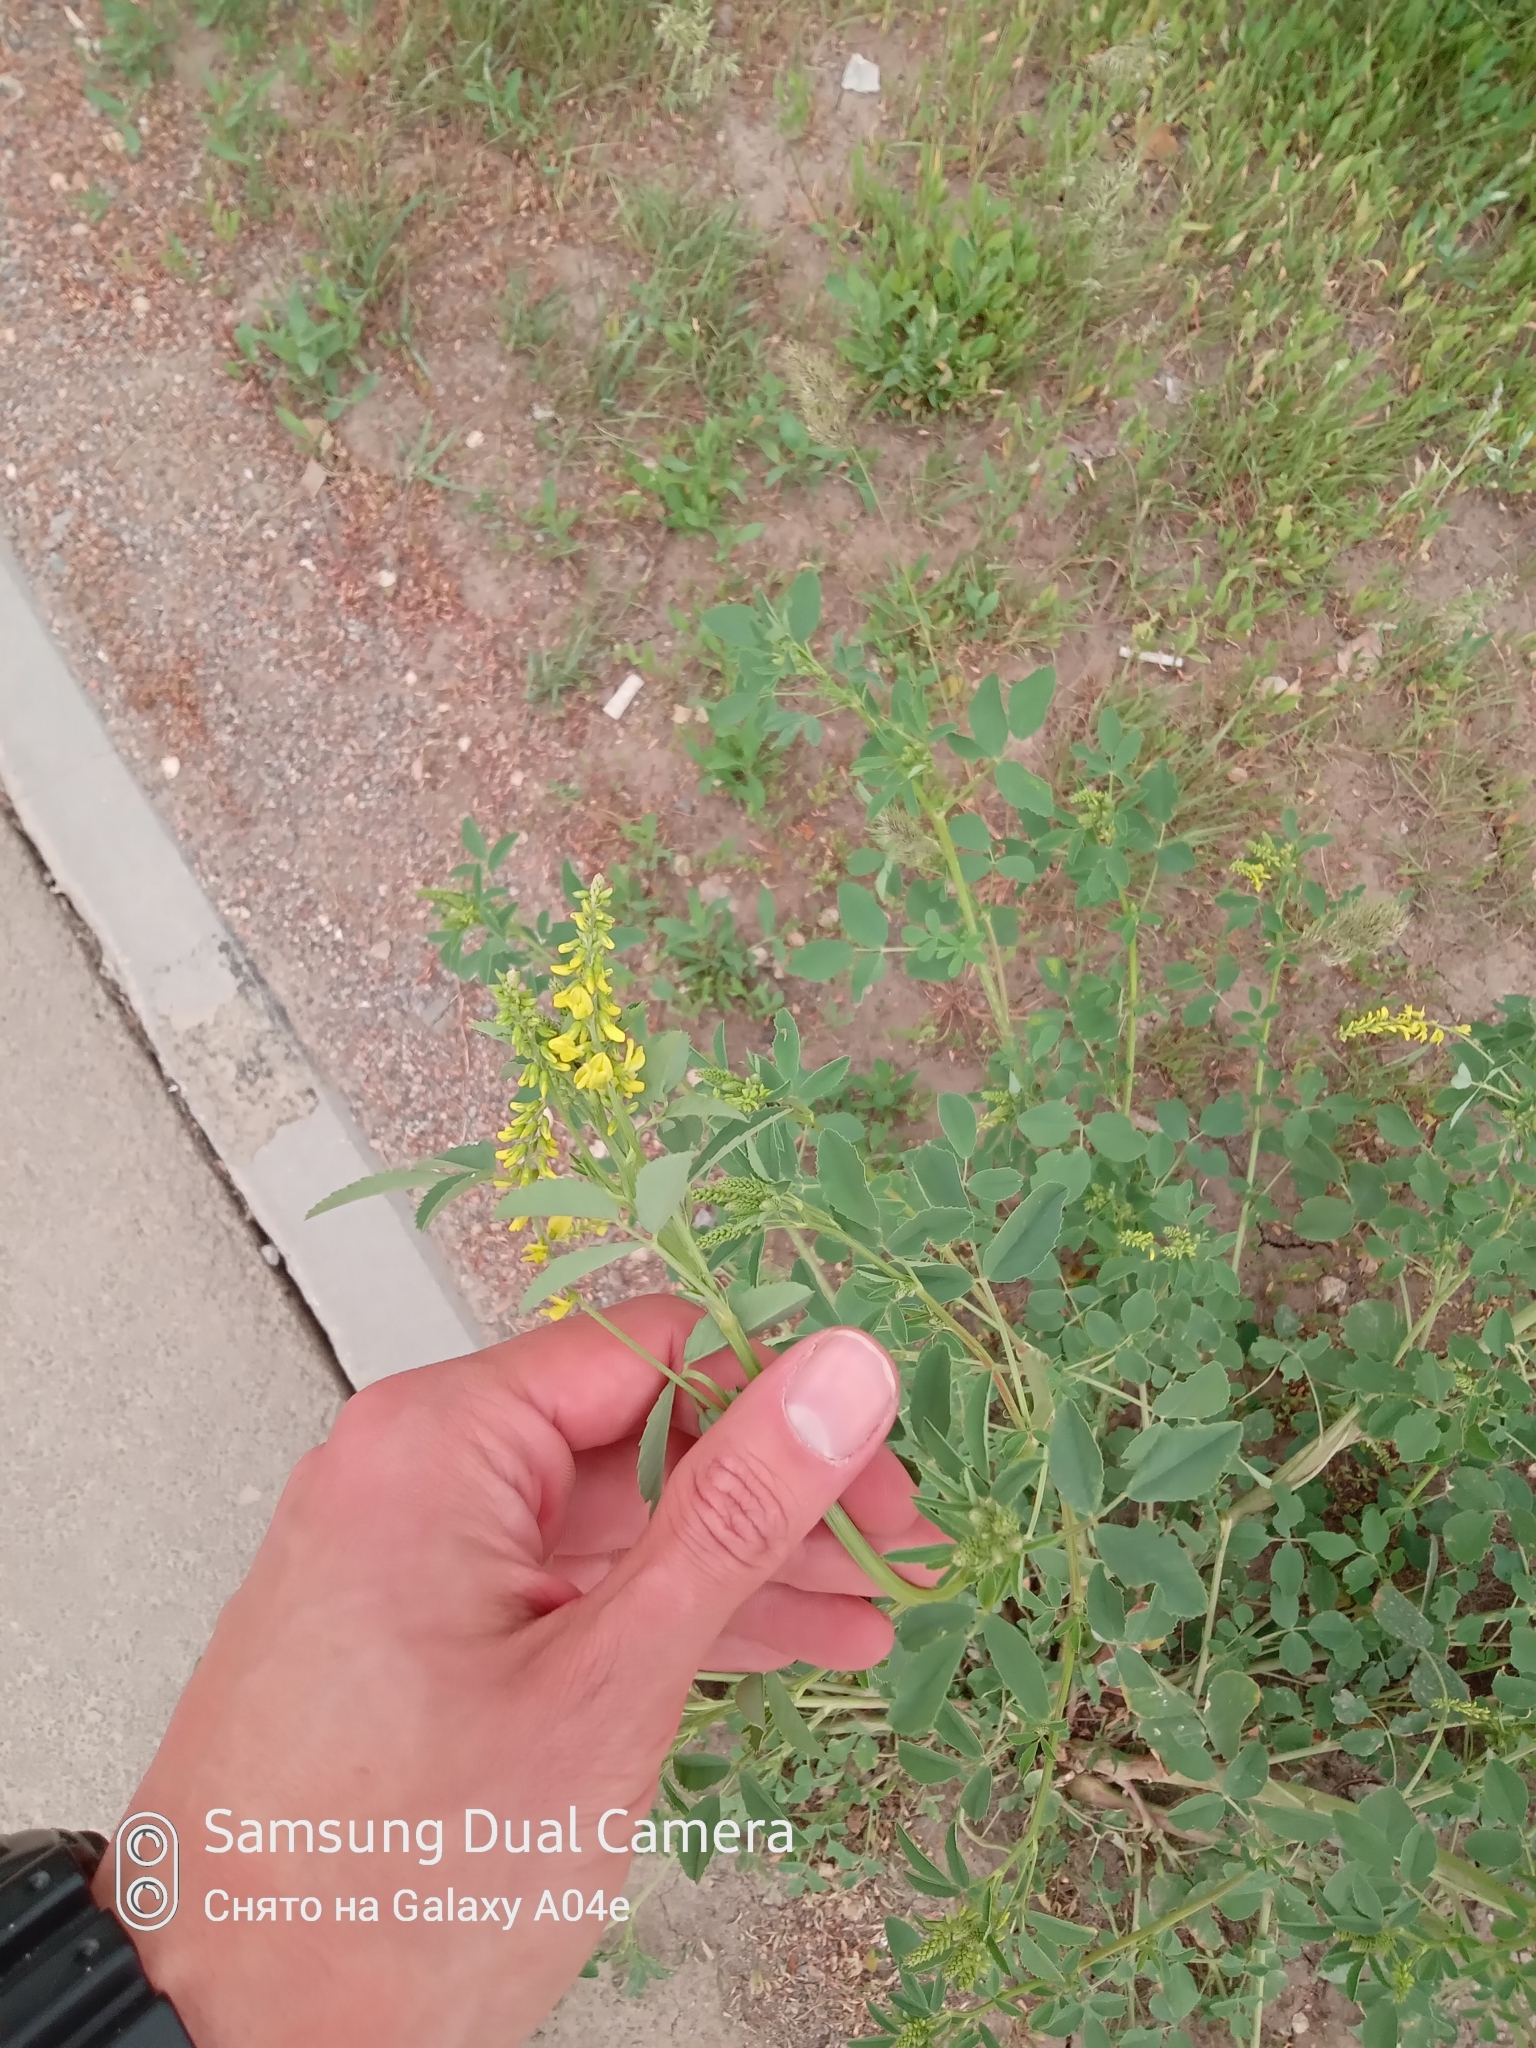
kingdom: Plantae
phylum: Tracheophyta
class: Magnoliopsida
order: Fabales
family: Fabaceae
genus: Melilotus
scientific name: Melilotus officinalis
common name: Sweetclover
